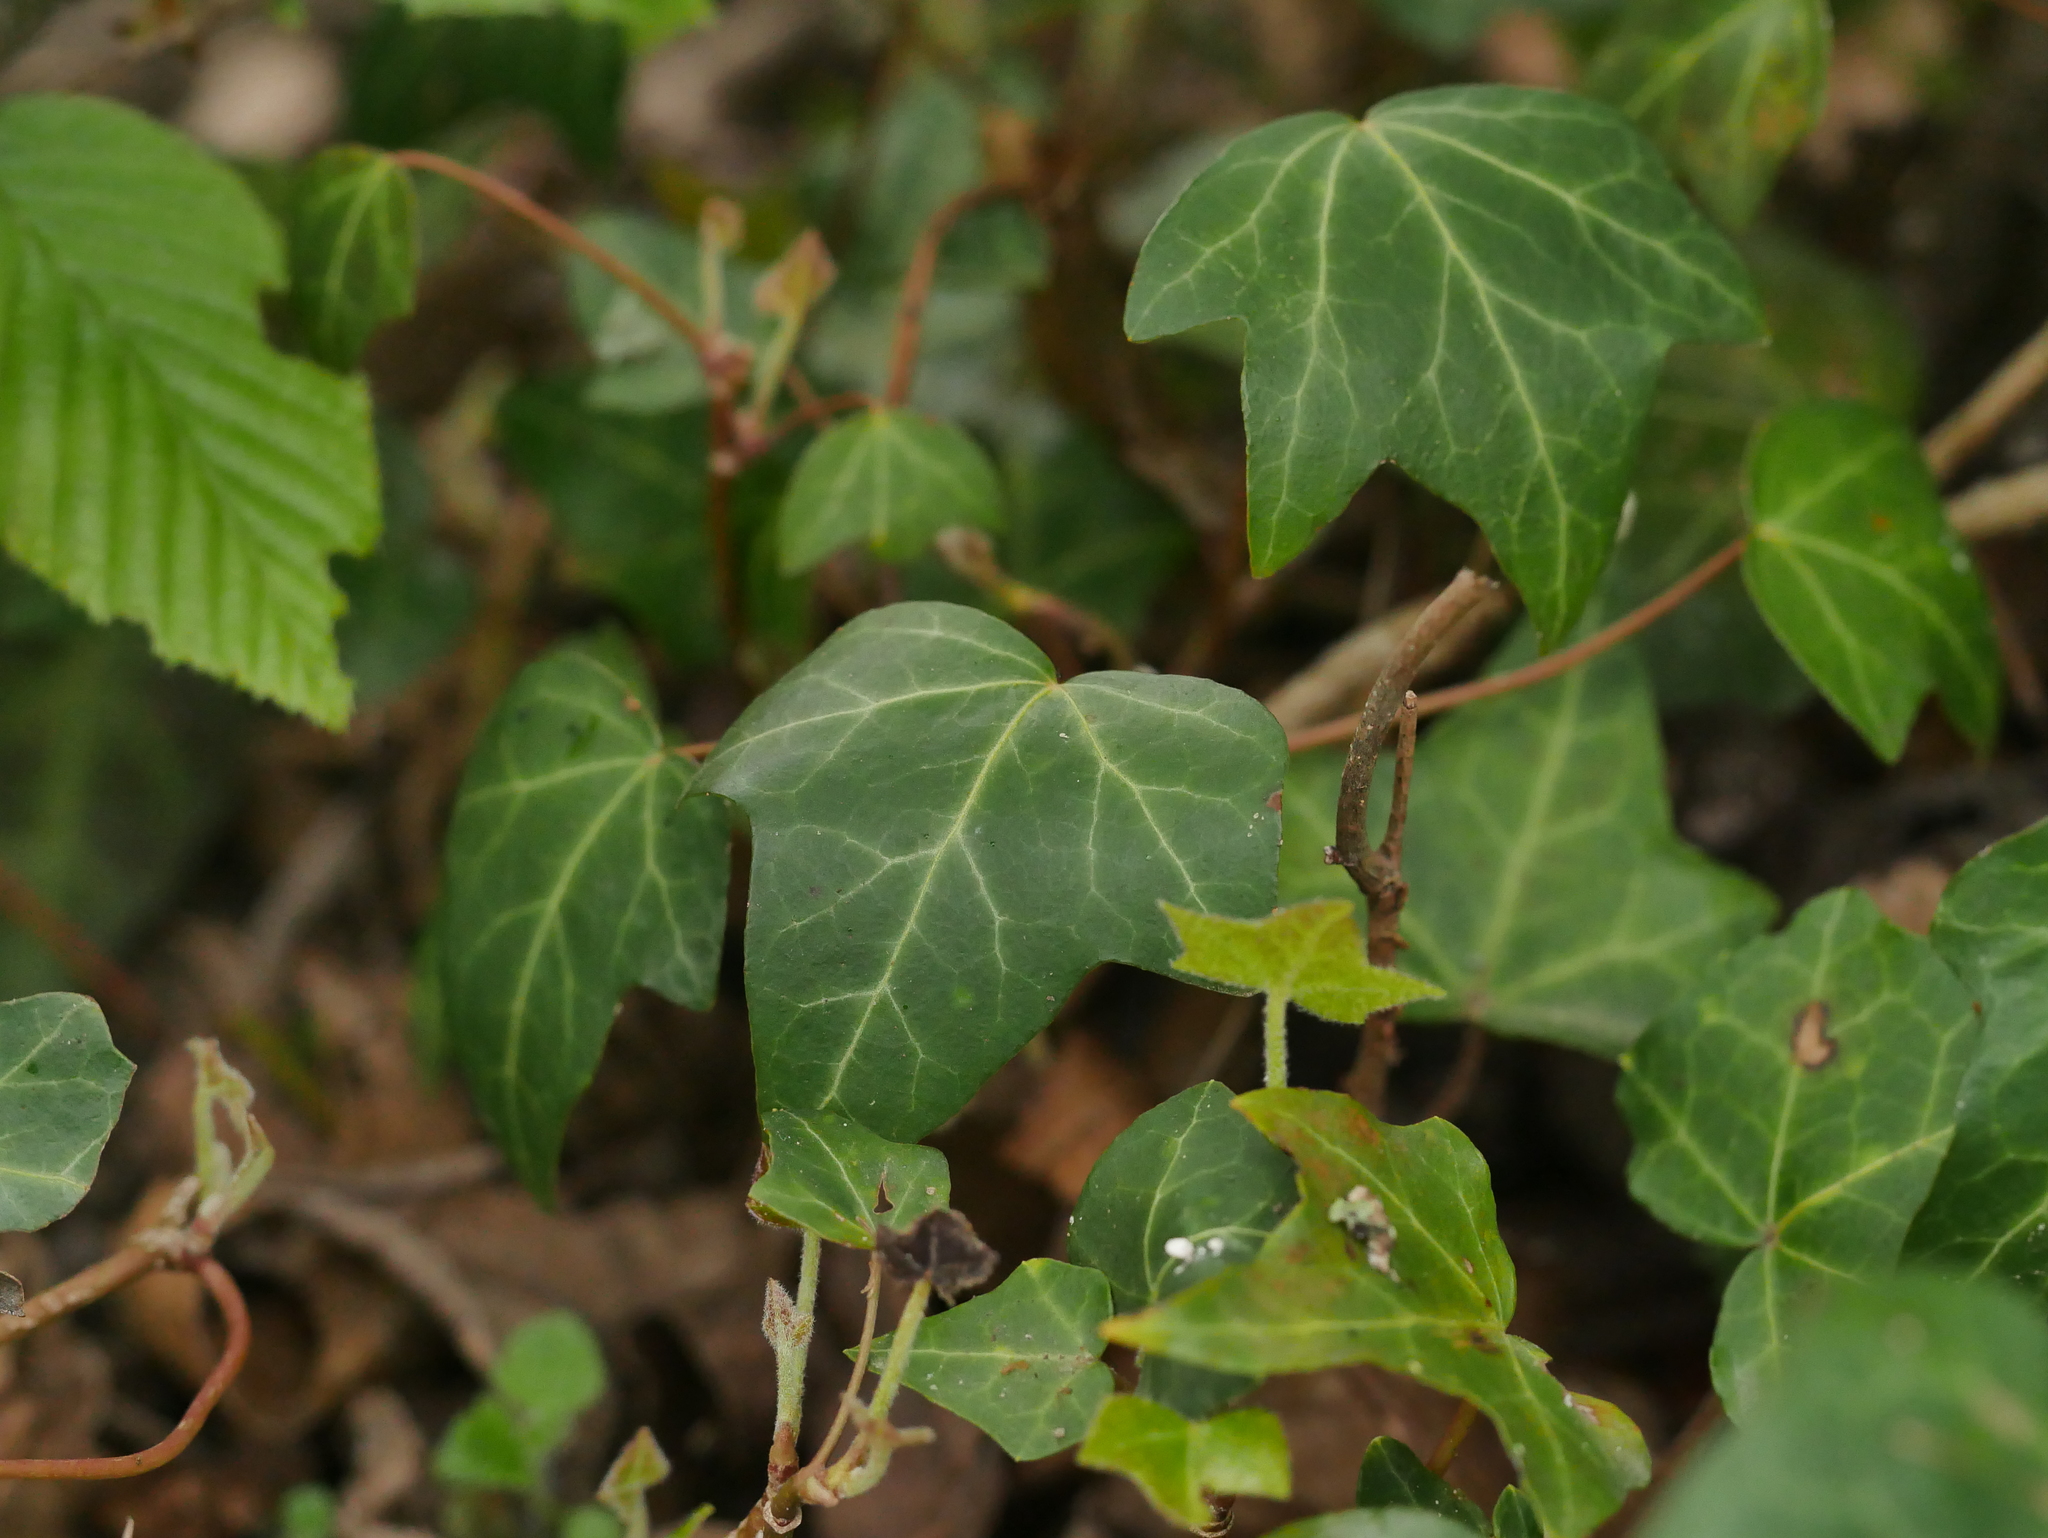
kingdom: Plantae
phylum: Tracheophyta
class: Magnoliopsida
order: Apiales
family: Araliaceae
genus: Hedera
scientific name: Hedera helix
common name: Ivy
